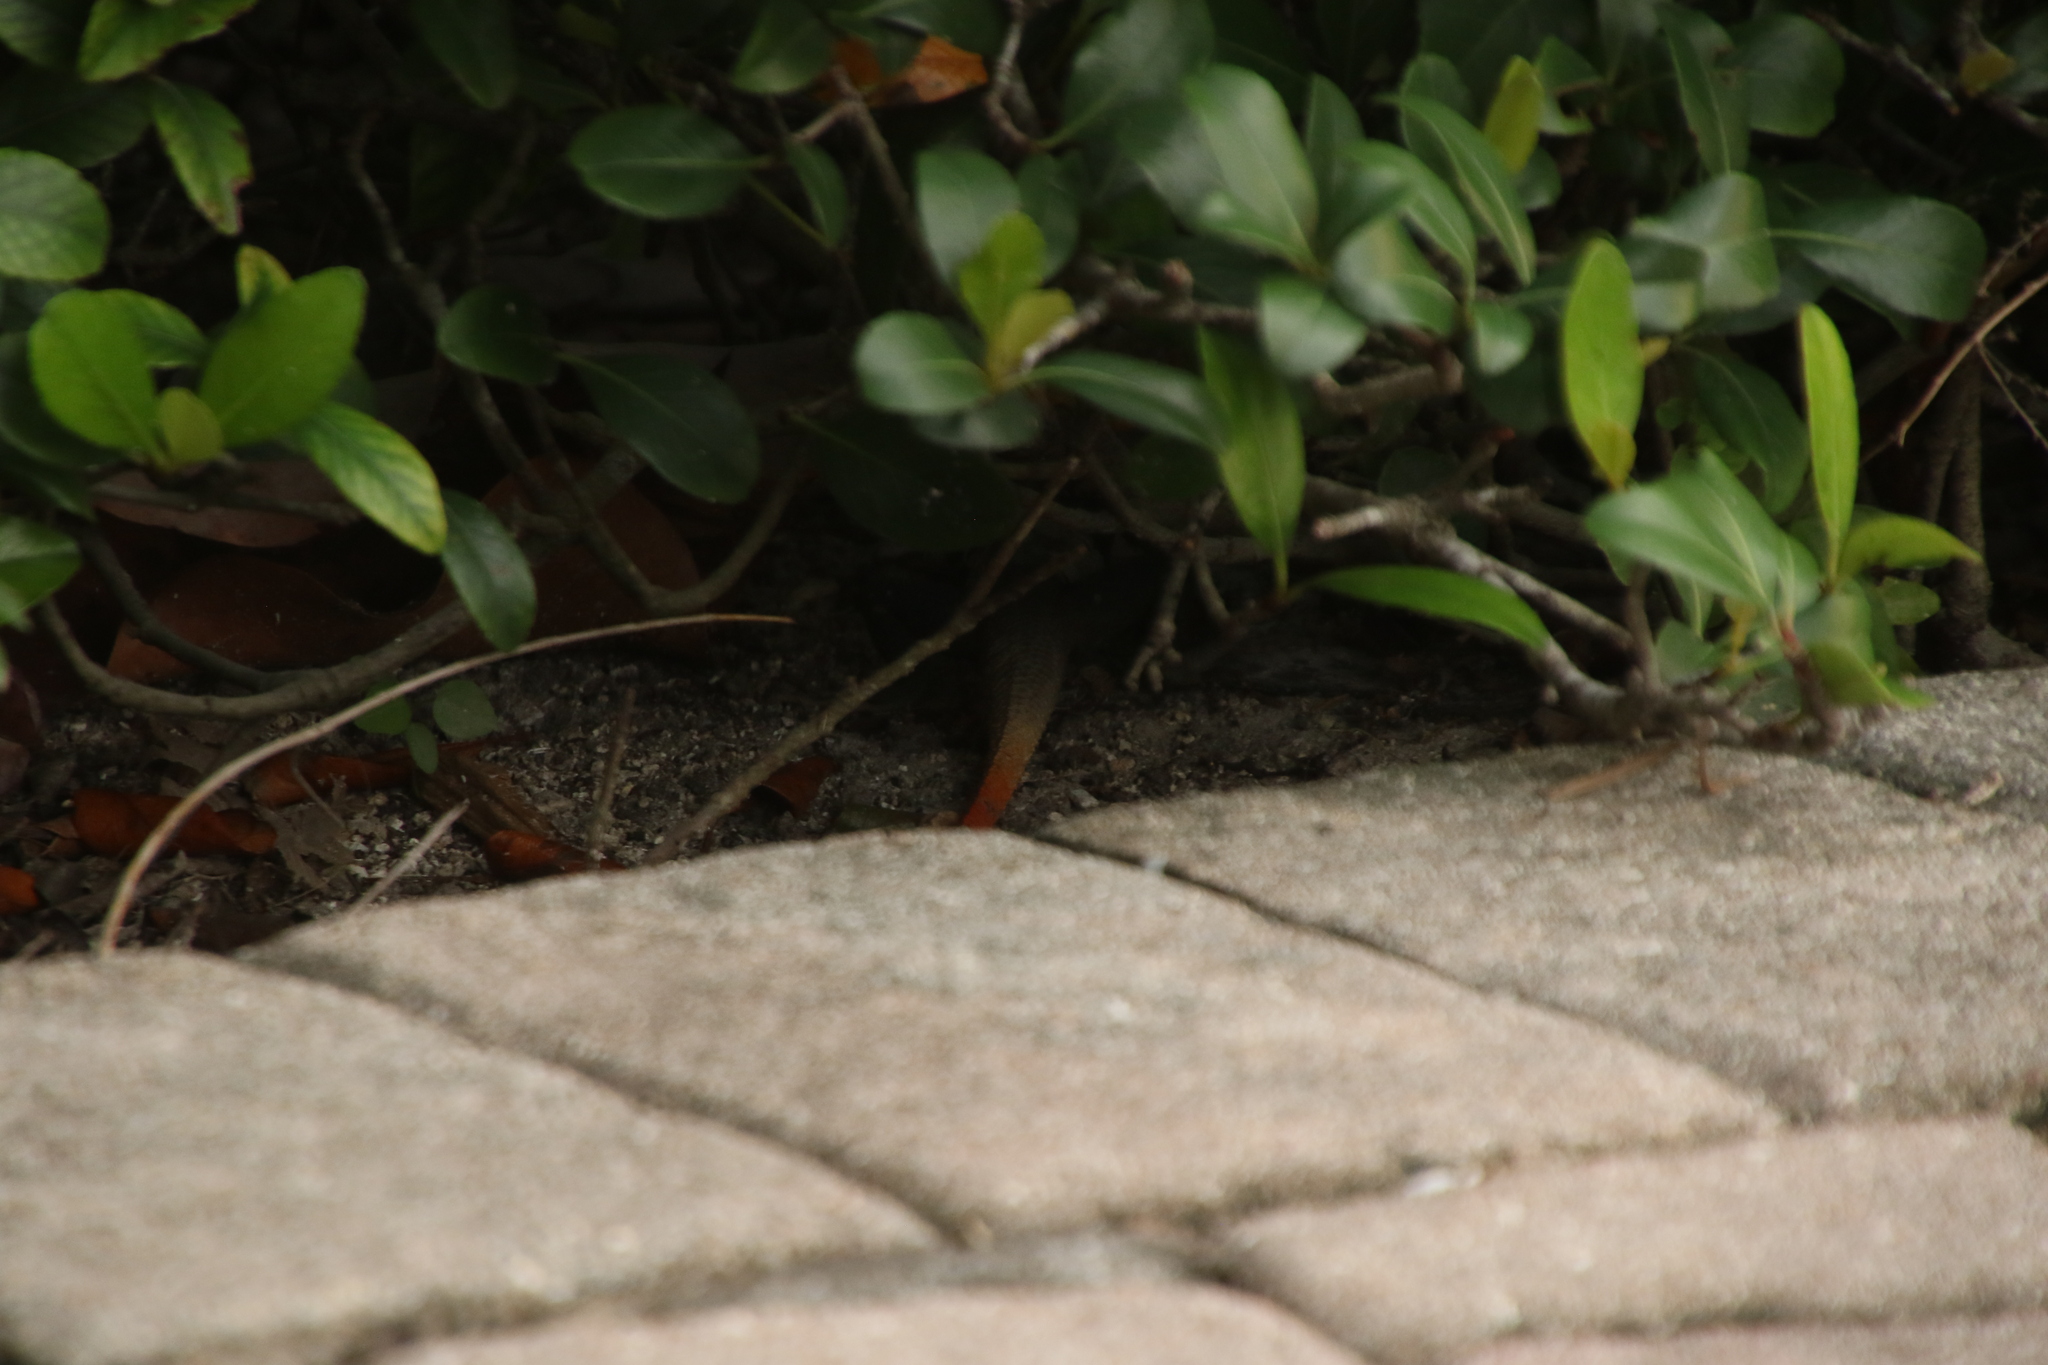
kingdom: Animalia
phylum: Chordata
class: Squamata
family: Agamidae
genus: Agama
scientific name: Agama picticauda
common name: Red-headed agama
